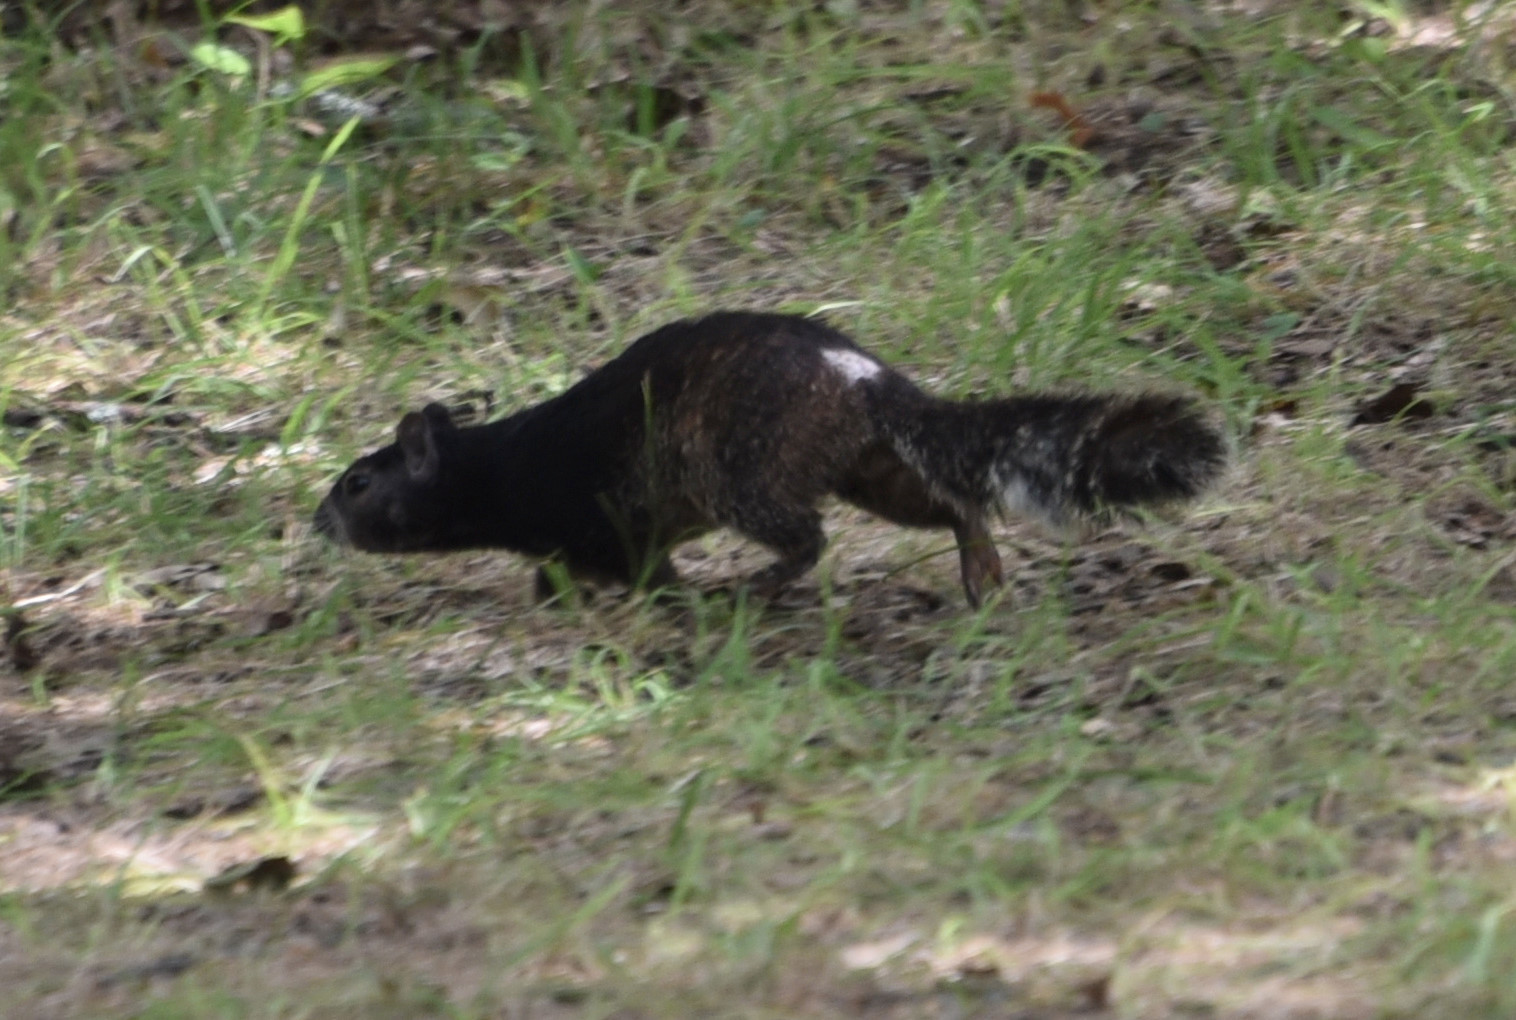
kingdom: Animalia
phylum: Chordata
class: Mammalia
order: Rodentia
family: Sciuridae
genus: Otospermophilus
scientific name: Otospermophilus variegatus
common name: Rock squirrel
